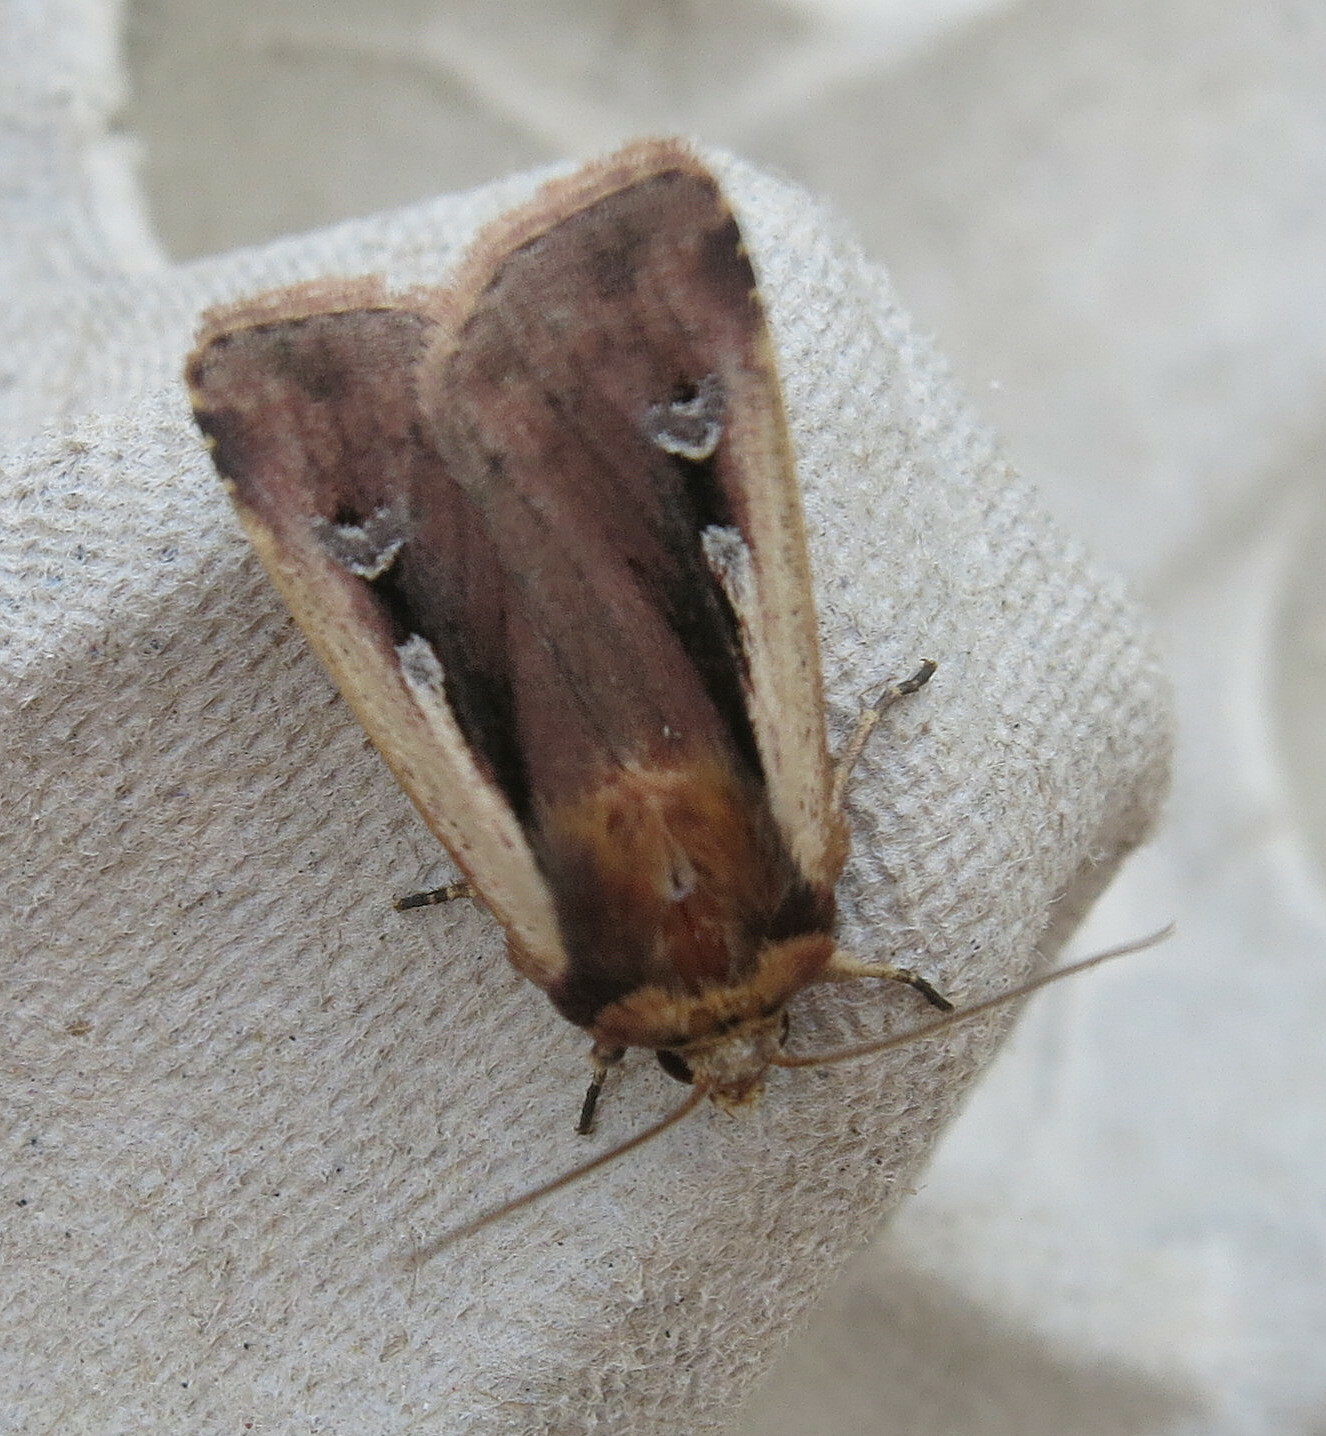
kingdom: Animalia
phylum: Arthropoda
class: Insecta
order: Lepidoptera
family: Noctuidae
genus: Ochropleura
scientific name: Ochropleura plecta
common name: Flame shoulder
